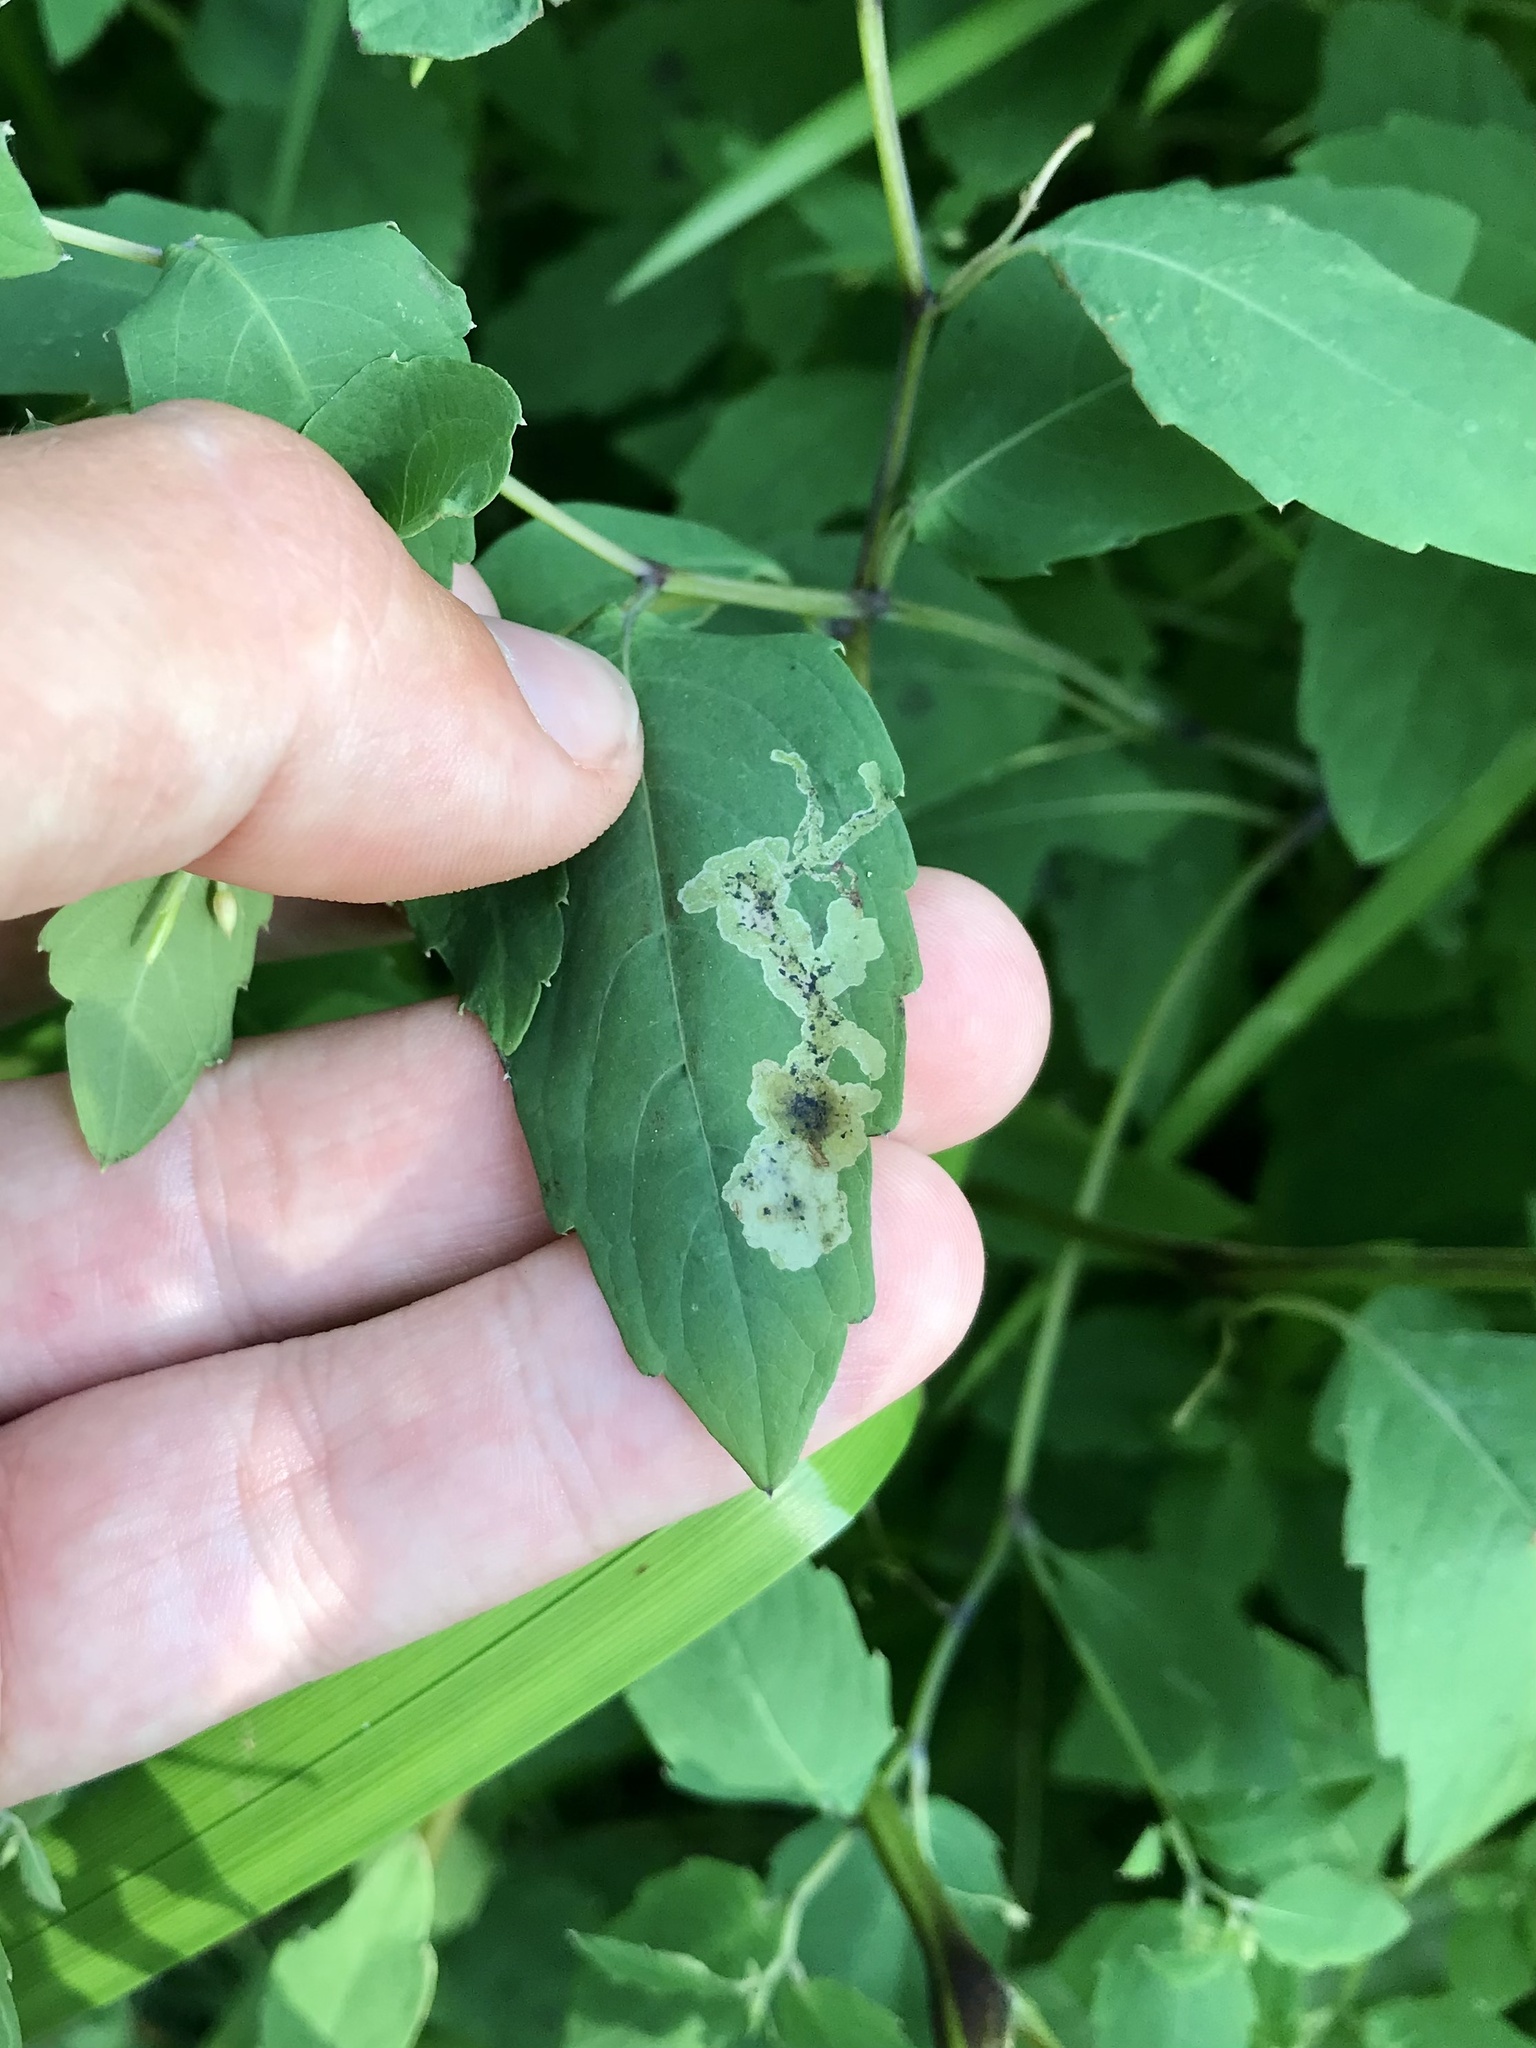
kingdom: Animalia
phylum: Arthropoda
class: Insecta
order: Diptera
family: Agromyzidae
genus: Phytoliriomyza
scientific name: Phytoliriomyza melampyga
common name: Jewelweed leaf-miner fly
